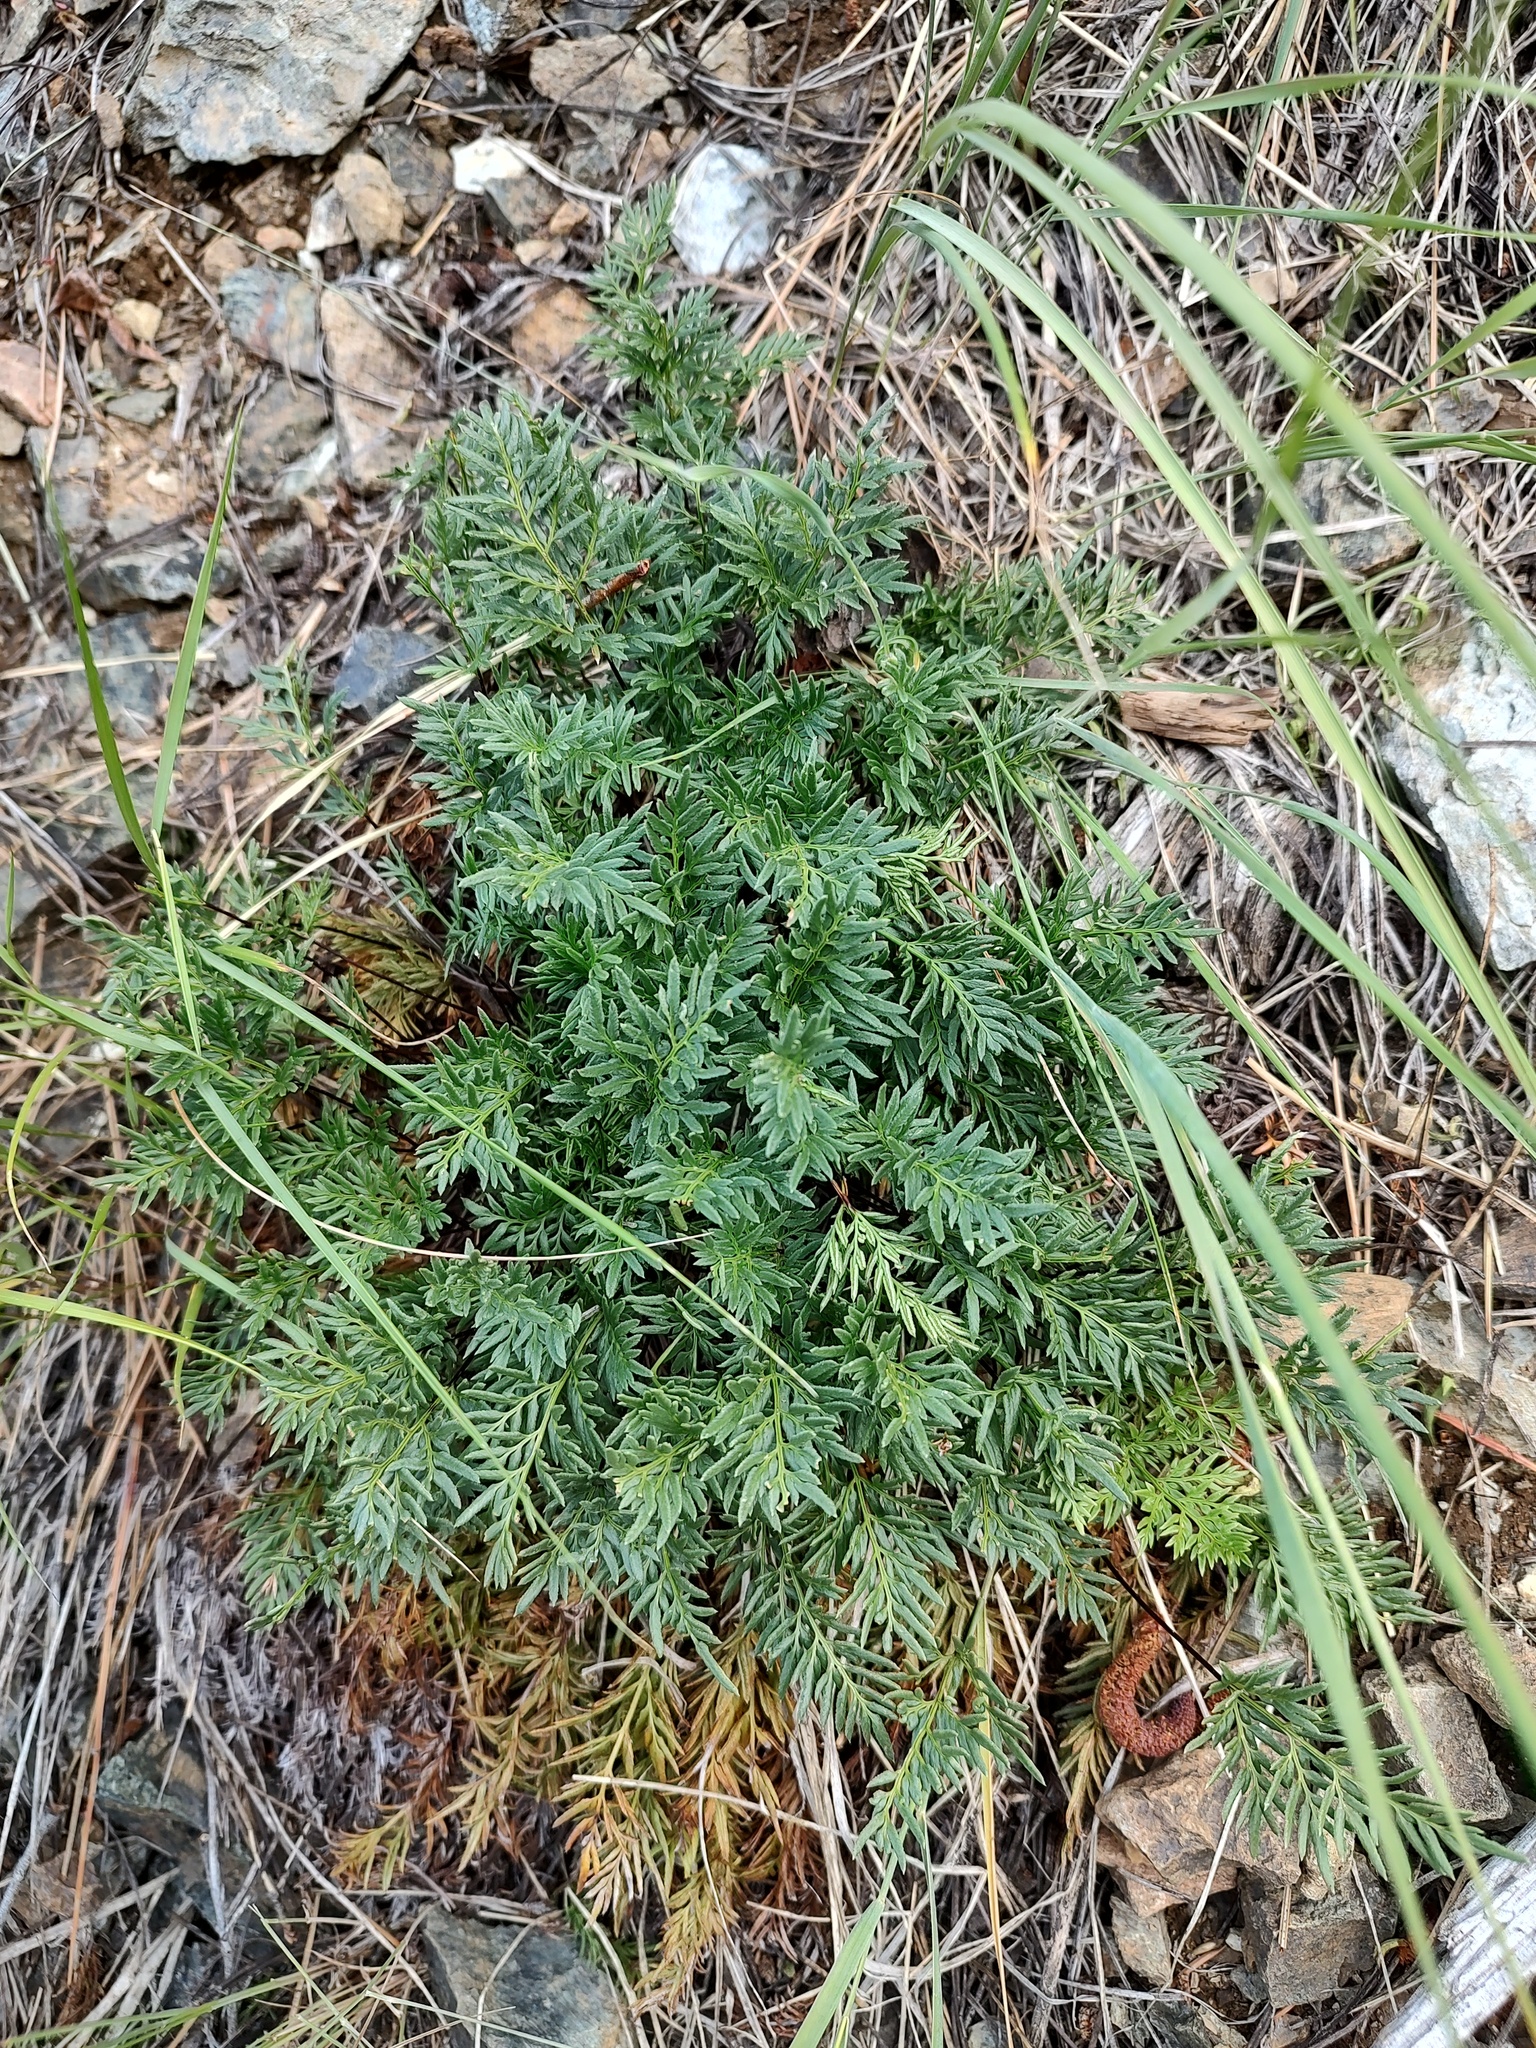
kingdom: Plantae
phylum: Tracheophyta
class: Polypodiopsida
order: Polypodiales
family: Pteridaceae
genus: Aspidotis
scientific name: Aspidotis densa
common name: Indian's dream
